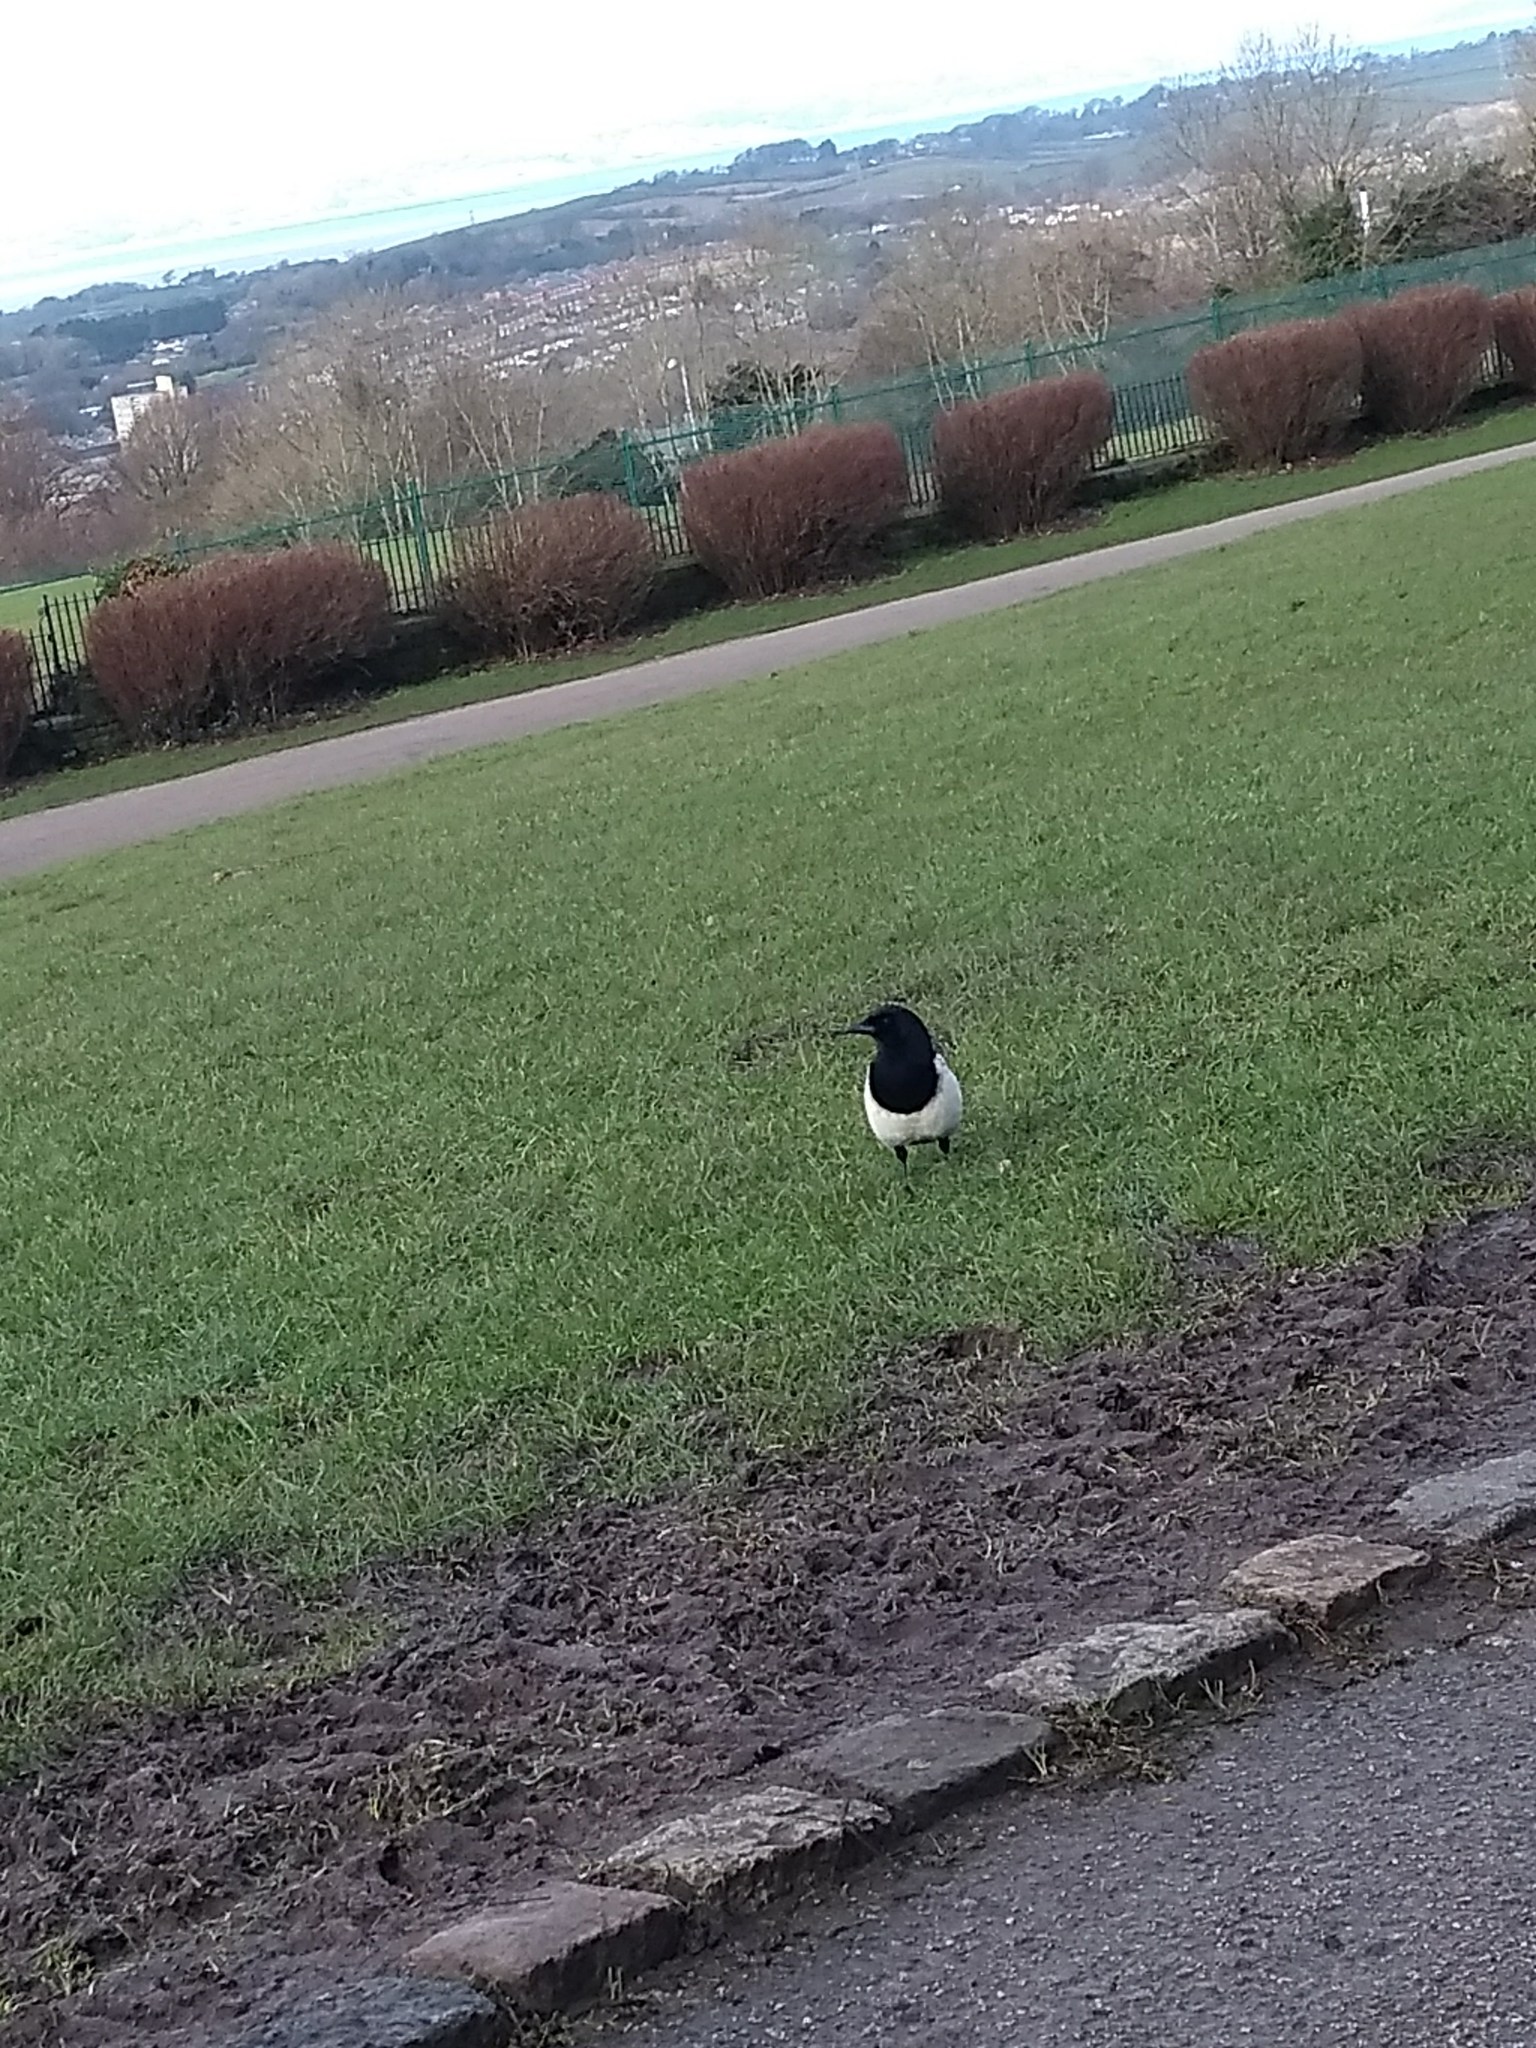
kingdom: Animalia
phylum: Chordata
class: Aves
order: Passeriformes
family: Corvidae
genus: Pica
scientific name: Pica pica
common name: Eurasian magpie
